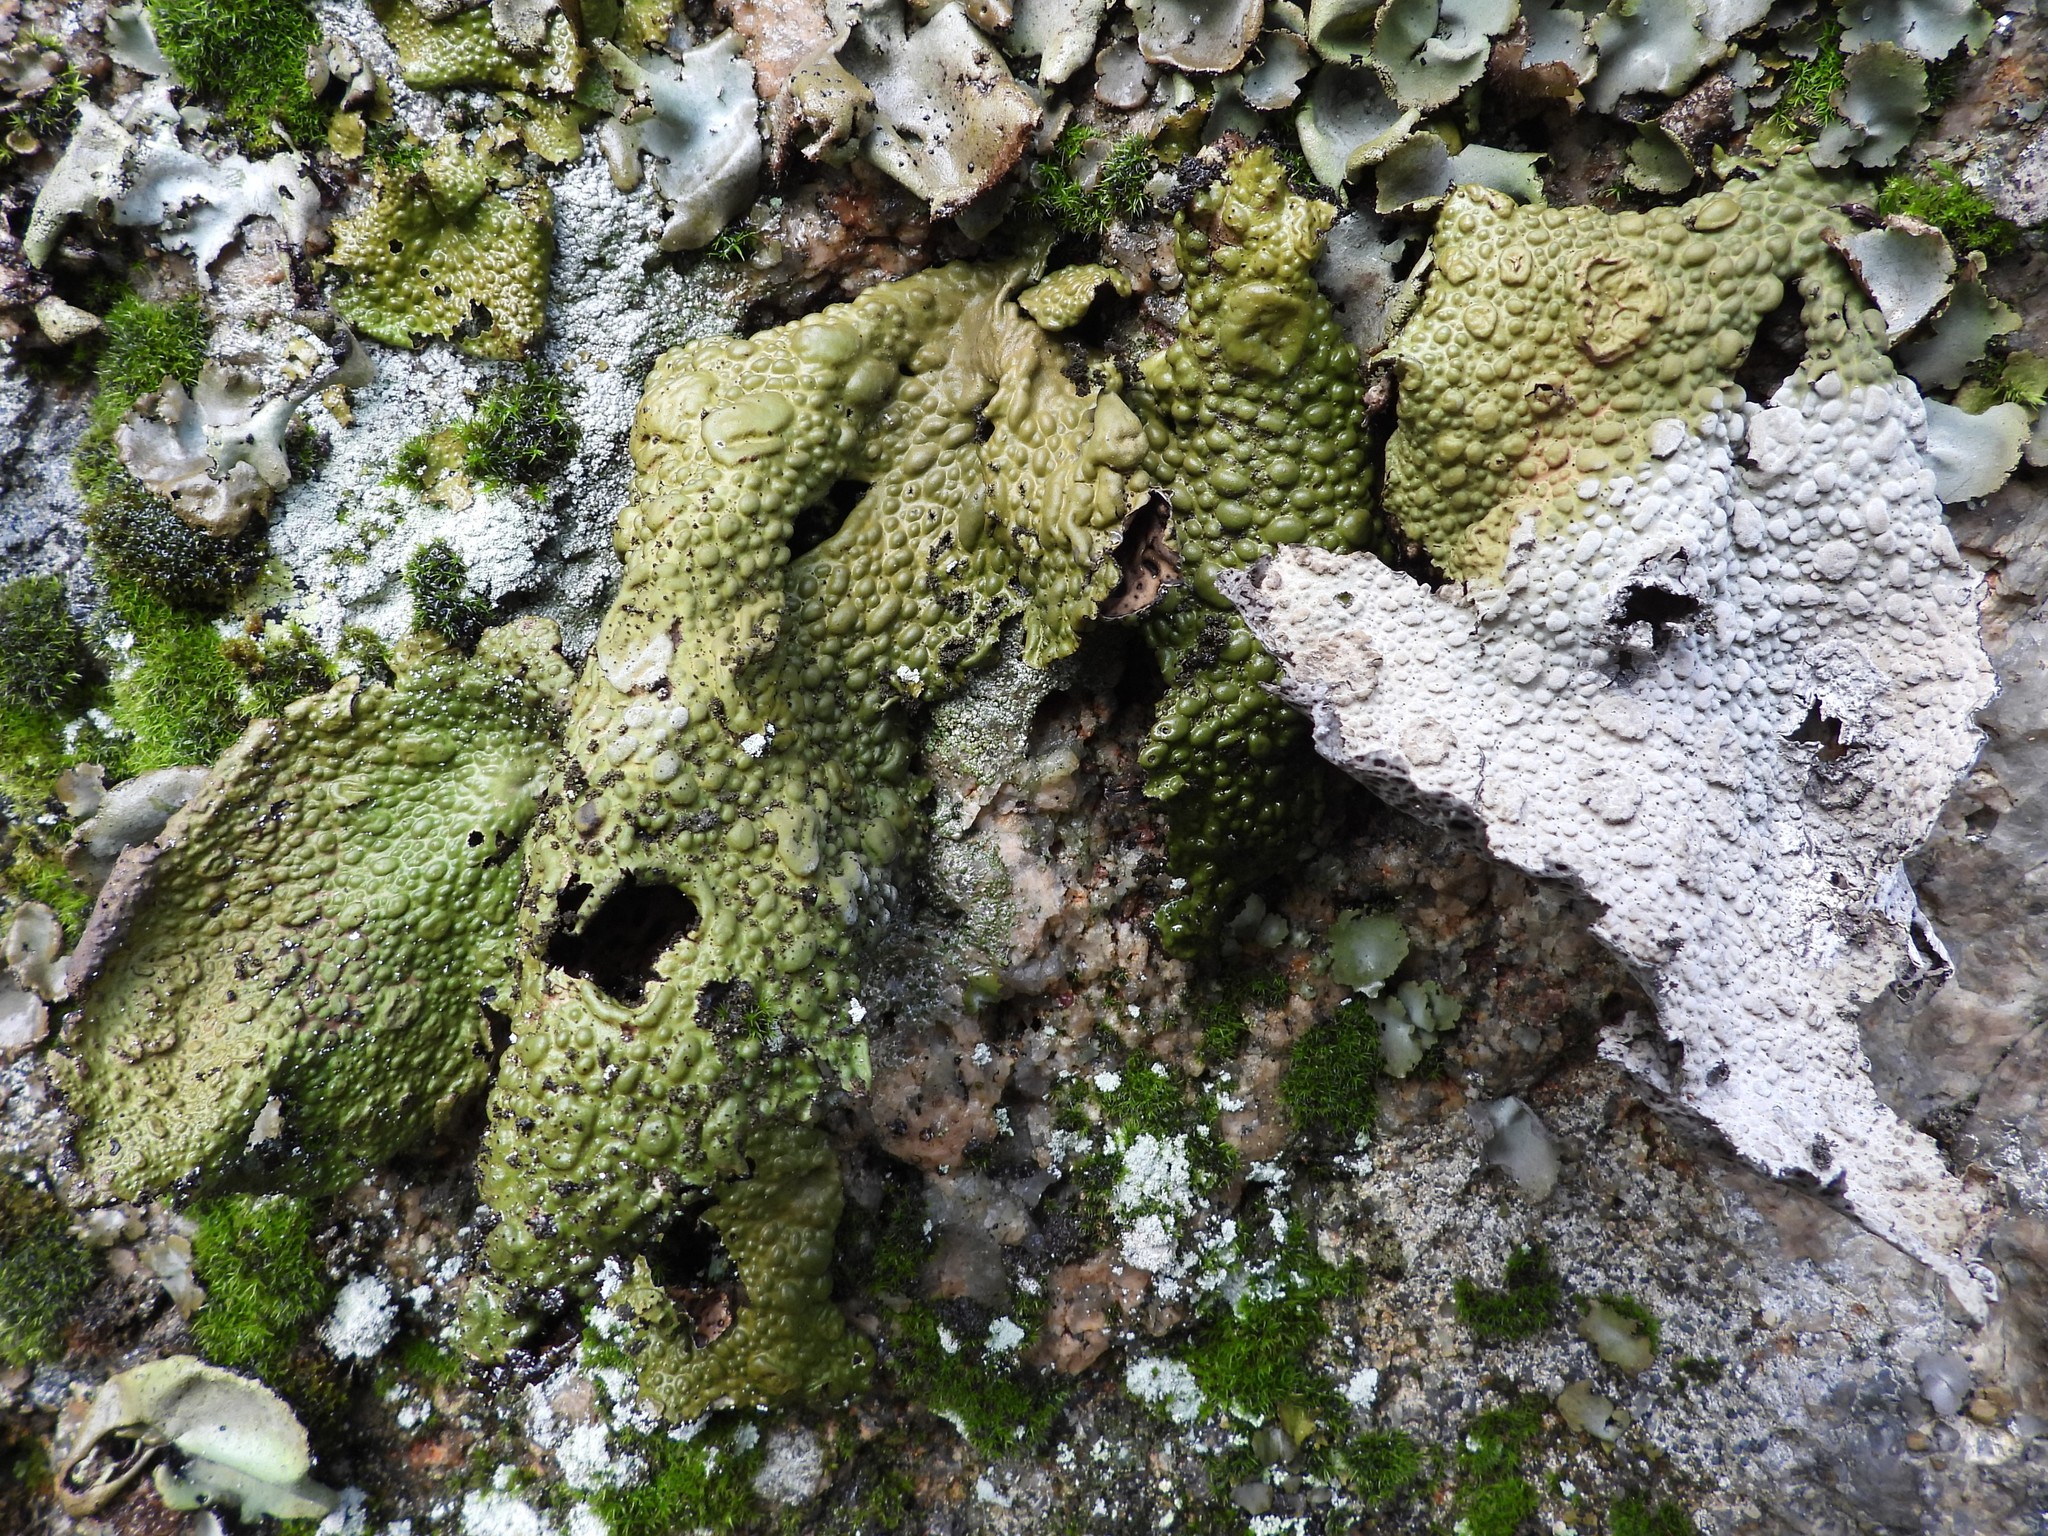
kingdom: Fungi
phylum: Ascomycota
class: Lecanoromycetes
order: Umbilicariales
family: Umbilicariaceae
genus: Lasallia
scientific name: Lasallia pustulata
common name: Blistered toadskin lichen
